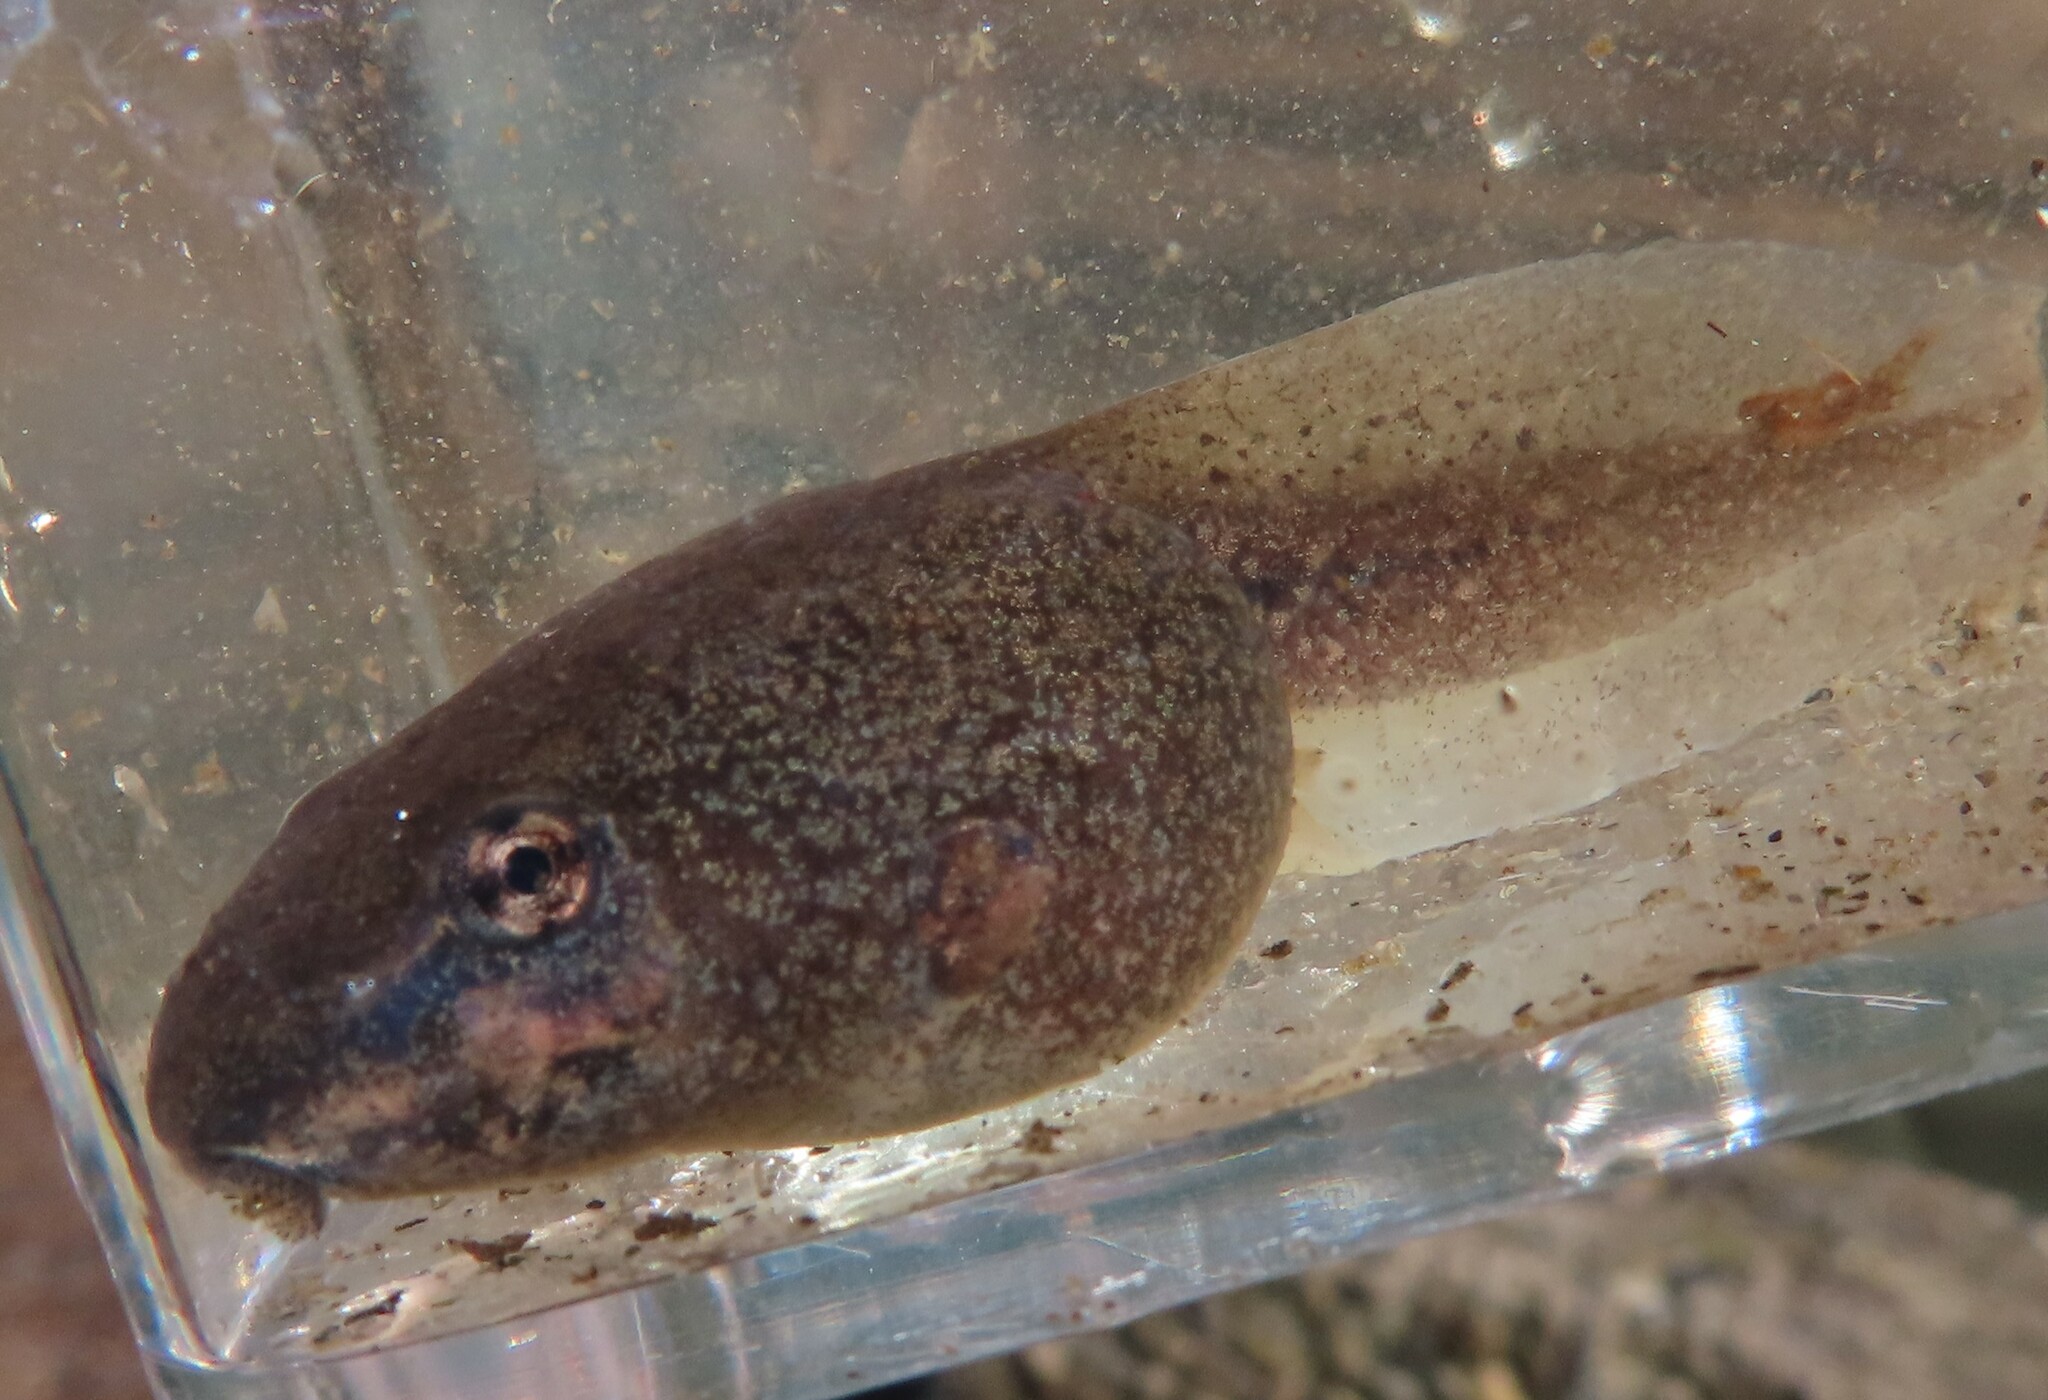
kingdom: Animalia
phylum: Chordata
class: Amphibia
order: Anura
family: Ranidae
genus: Lithobates
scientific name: Lithobates clamitans
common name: Green frog
